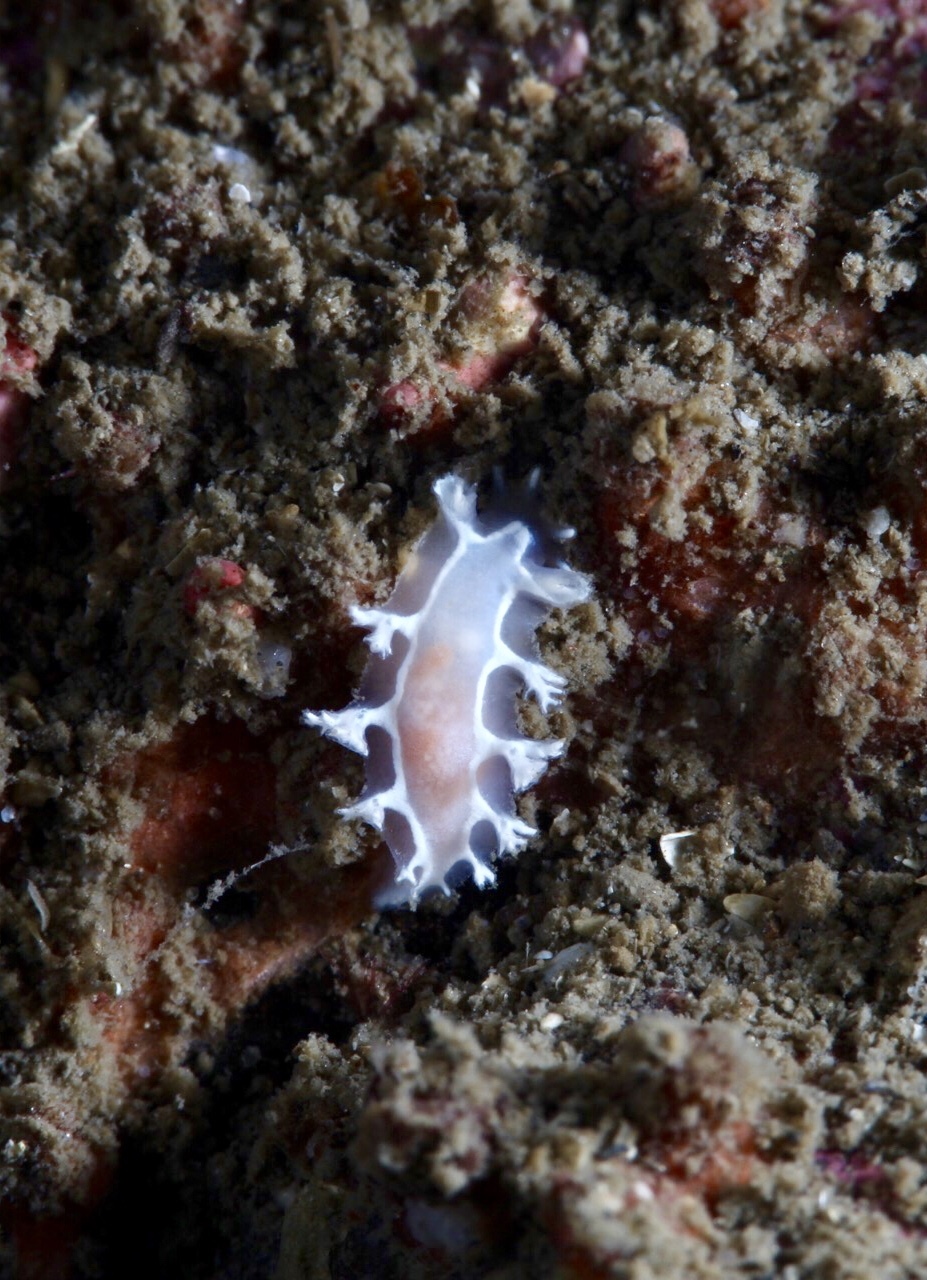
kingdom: Animalia
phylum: Mollusca
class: Gastropoda
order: Nudibranchia
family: Tritoniidae
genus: Duvaucelia
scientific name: Duvaucelia lineata
